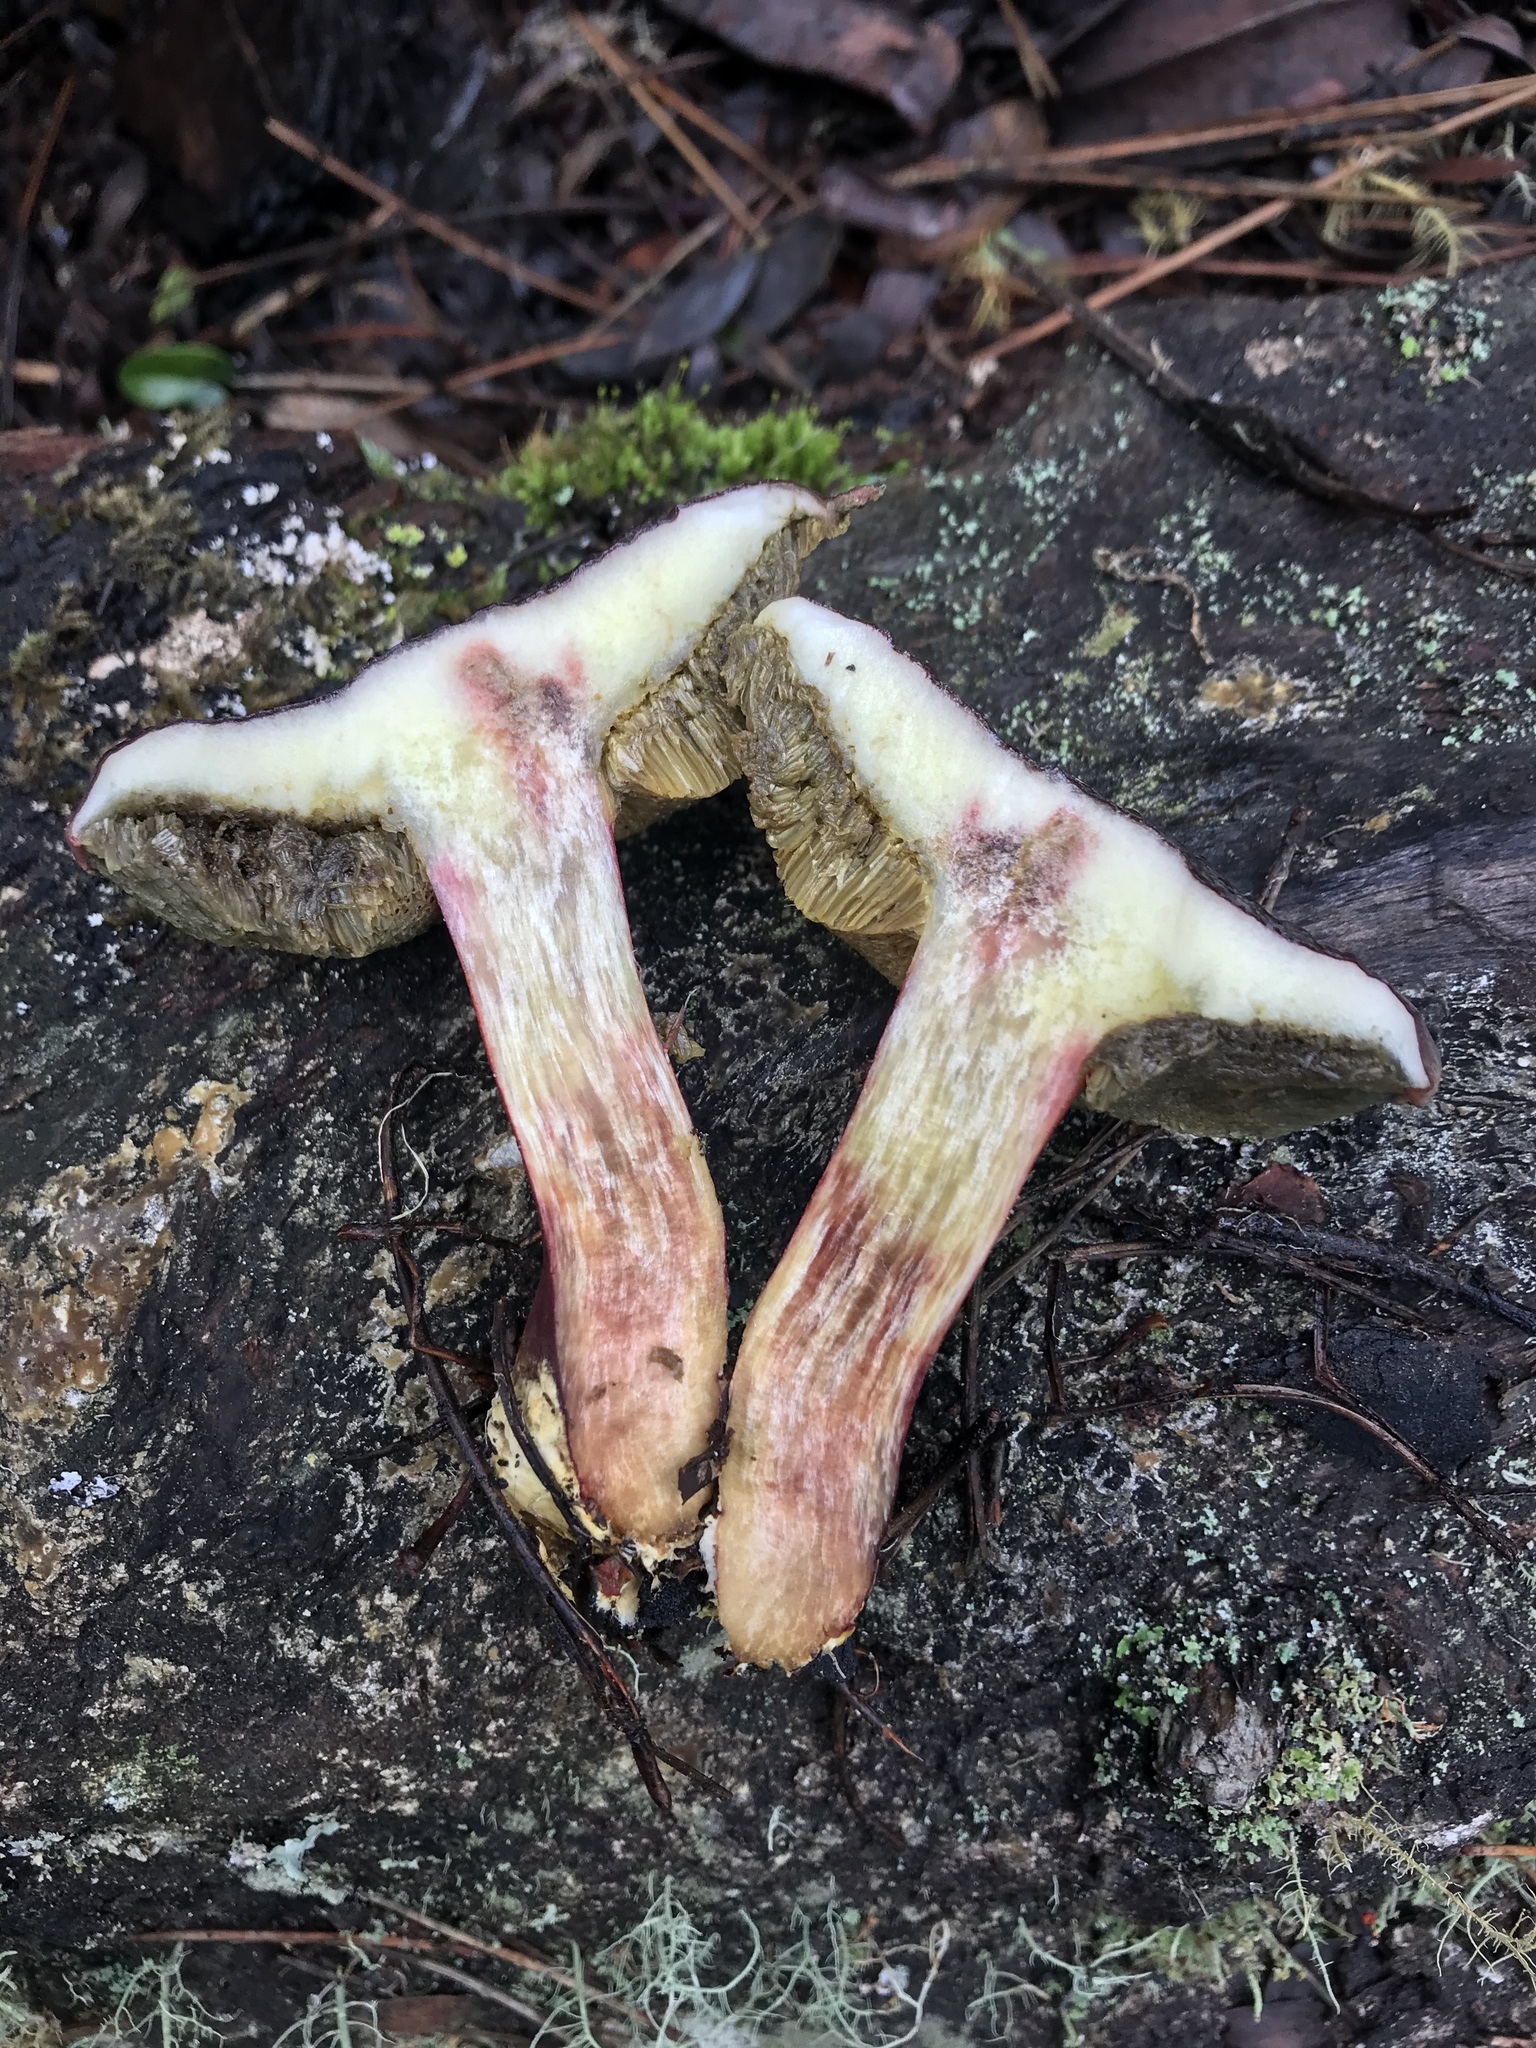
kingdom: Fungi
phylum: Basidiomycota
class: Agaricomycetes
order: Boletales
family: Boletaceae
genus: Xerocomellus
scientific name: Xerocomellus atropurpureus
